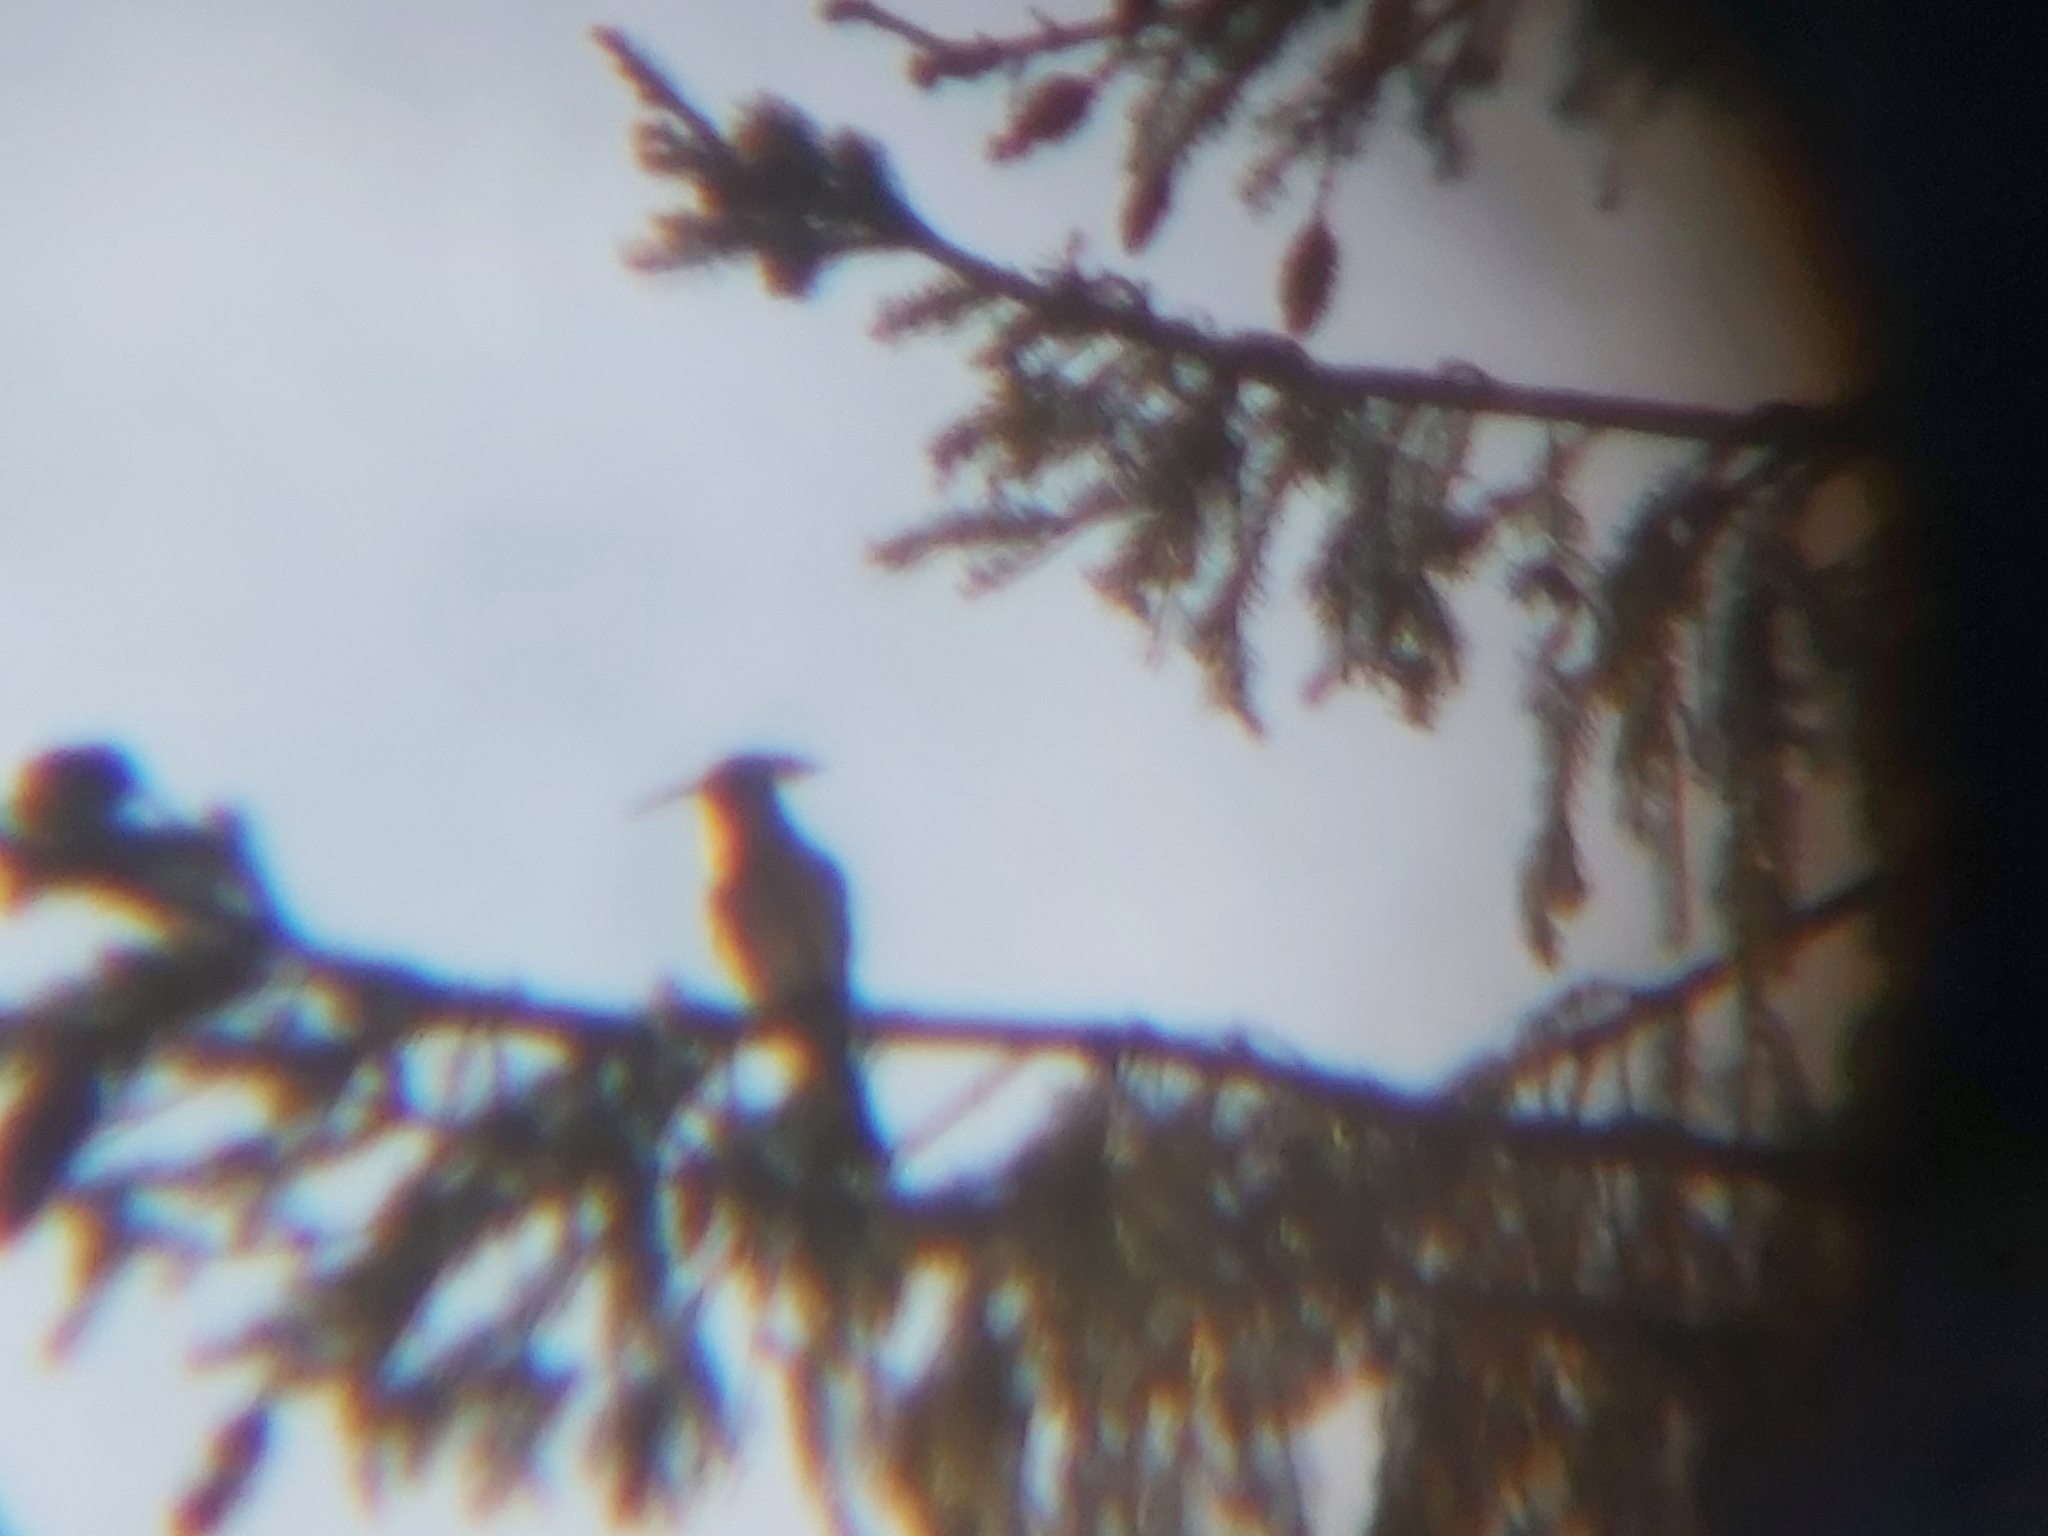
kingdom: Animalia
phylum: Chordata
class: Aves
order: Bucerotiformes
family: Upupidae
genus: Upupa
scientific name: Upupa epops
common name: Eurasian hoopoe
